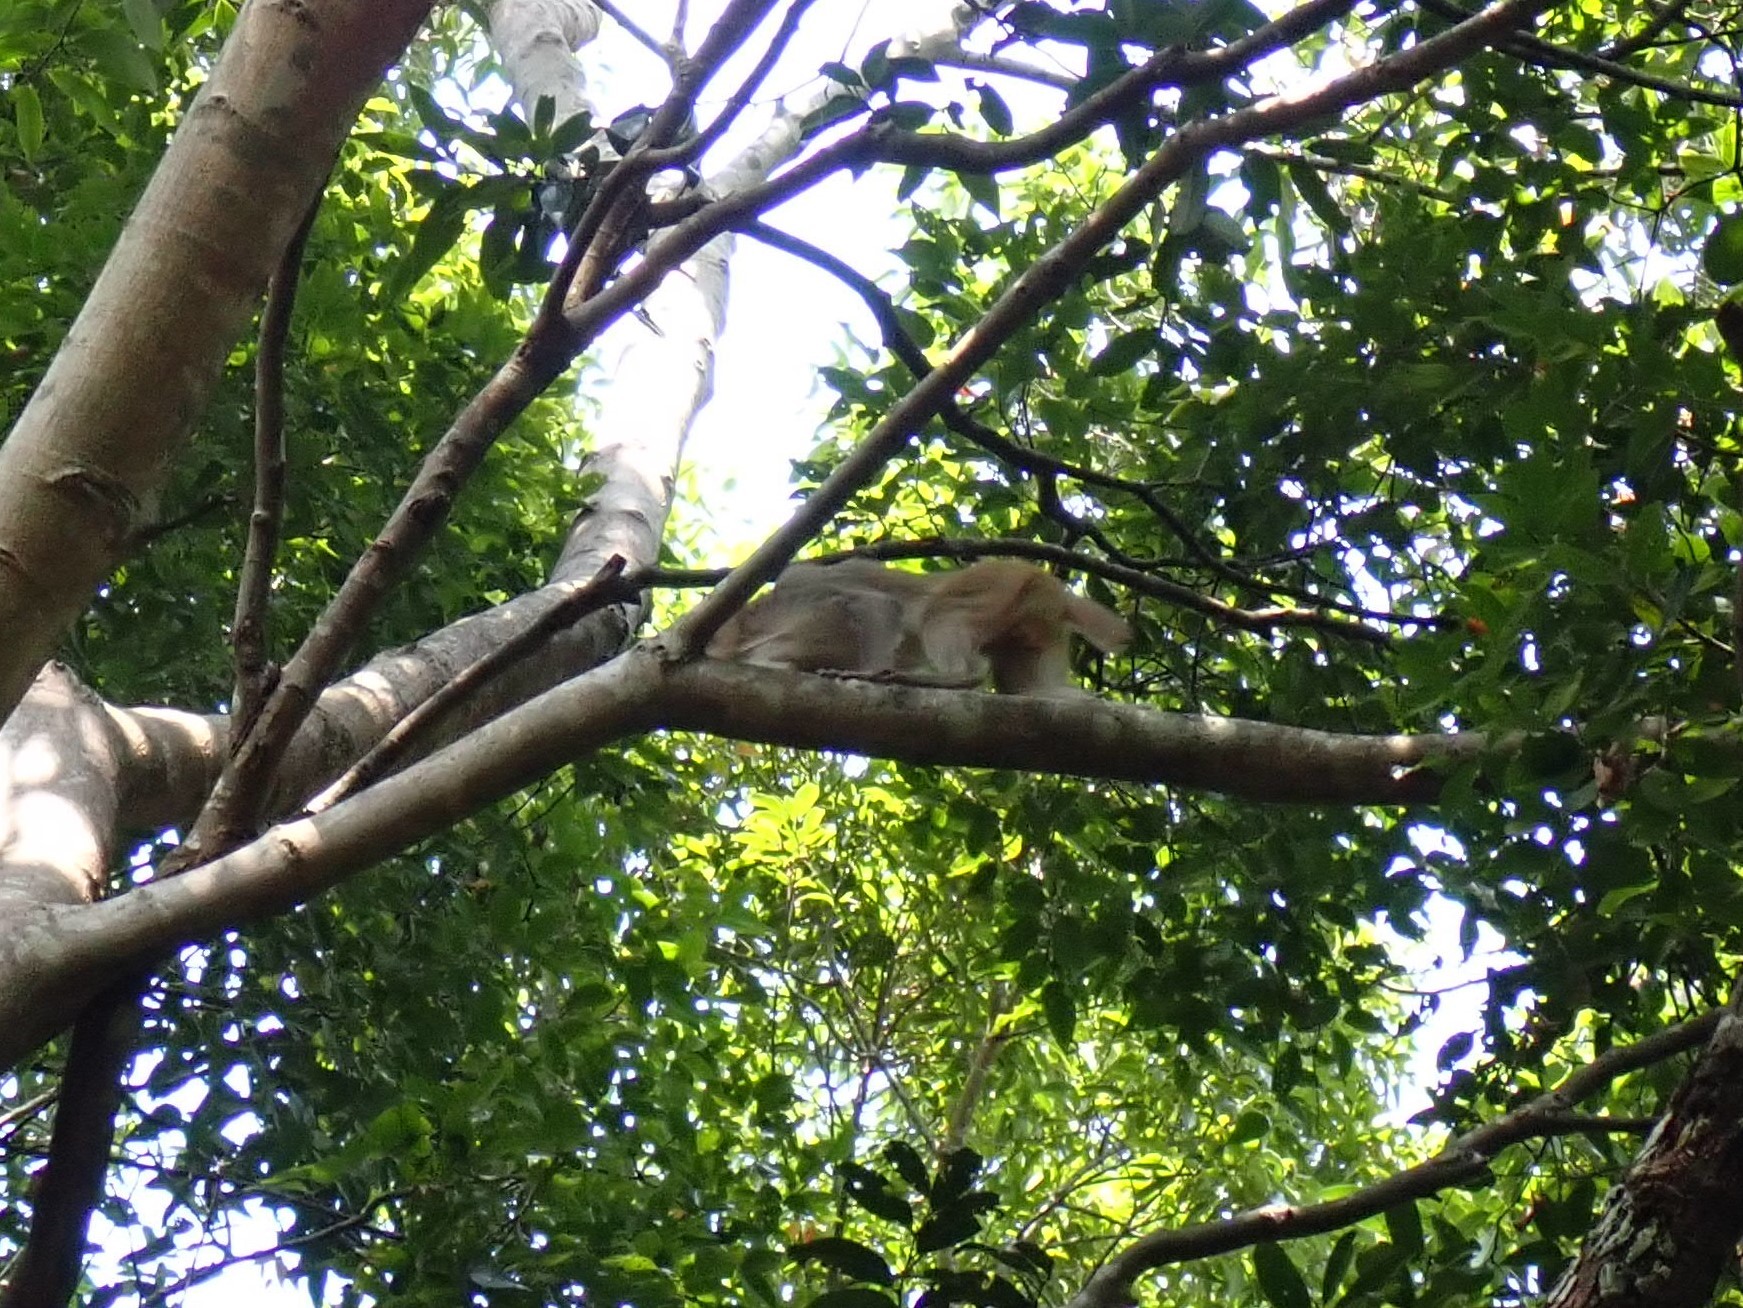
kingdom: Animalia
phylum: Chordata
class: Mammalia
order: Primates
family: Cercopithecidae
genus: Macaca
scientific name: Macaca mulatta
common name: Rhesus monkey
